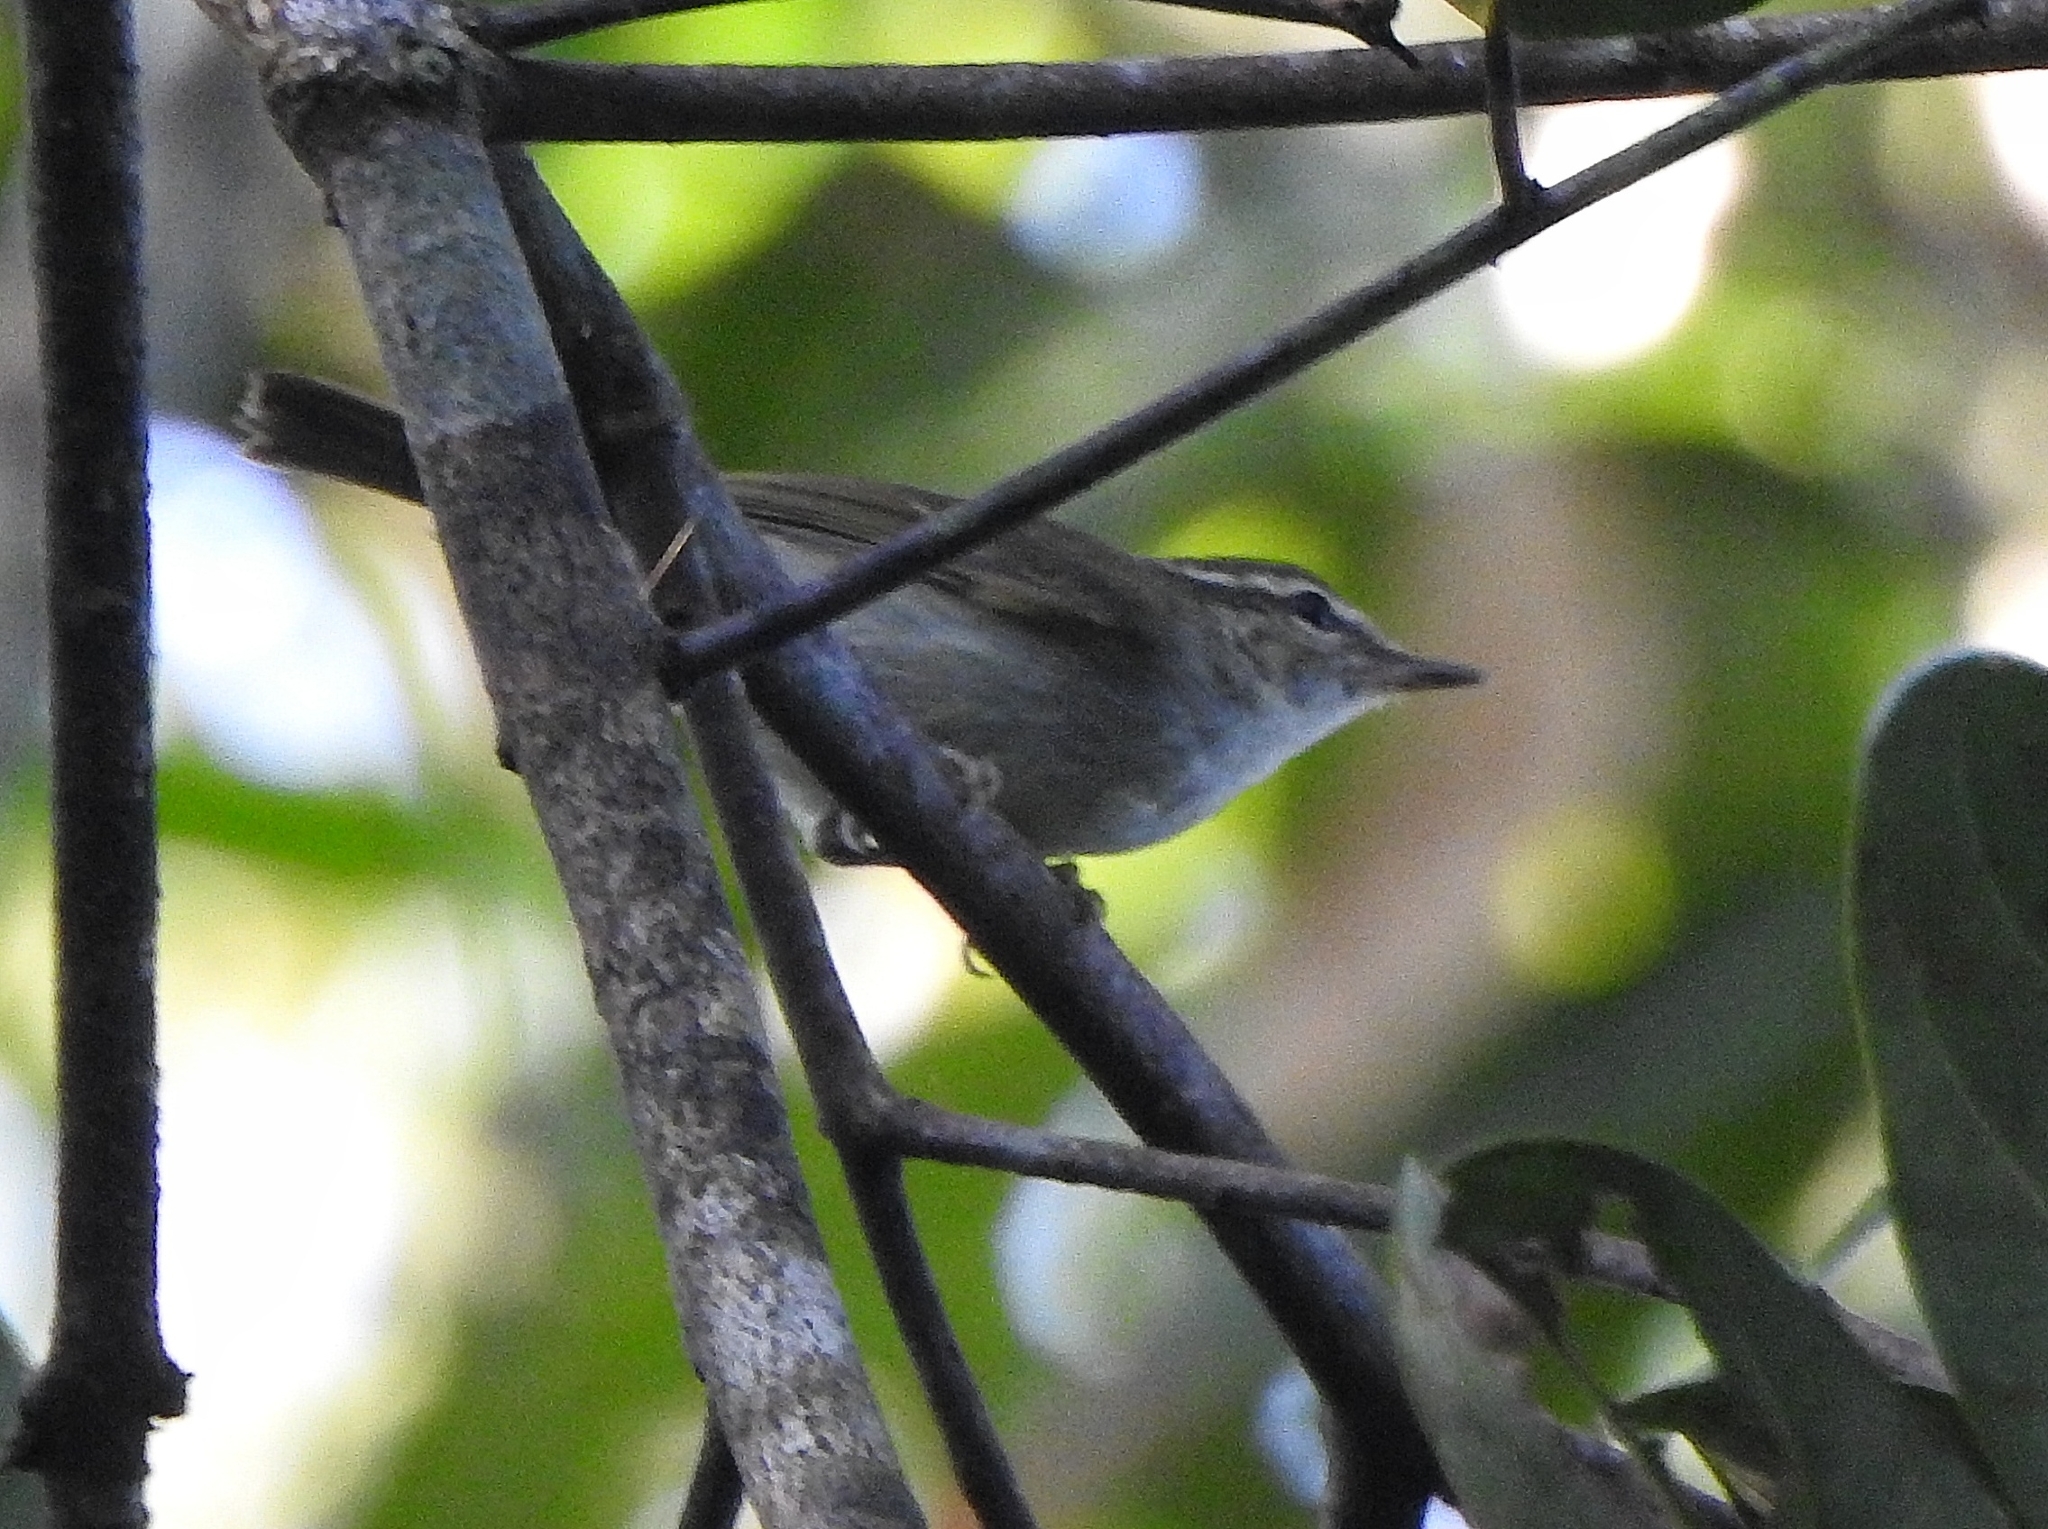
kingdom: Animalia
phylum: Chordata
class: Aves
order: Passeriformes
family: Phylloscopidae
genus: Phylloscopus
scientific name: Phylloscopus magnirostris
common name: Large-billed leaf warbler
